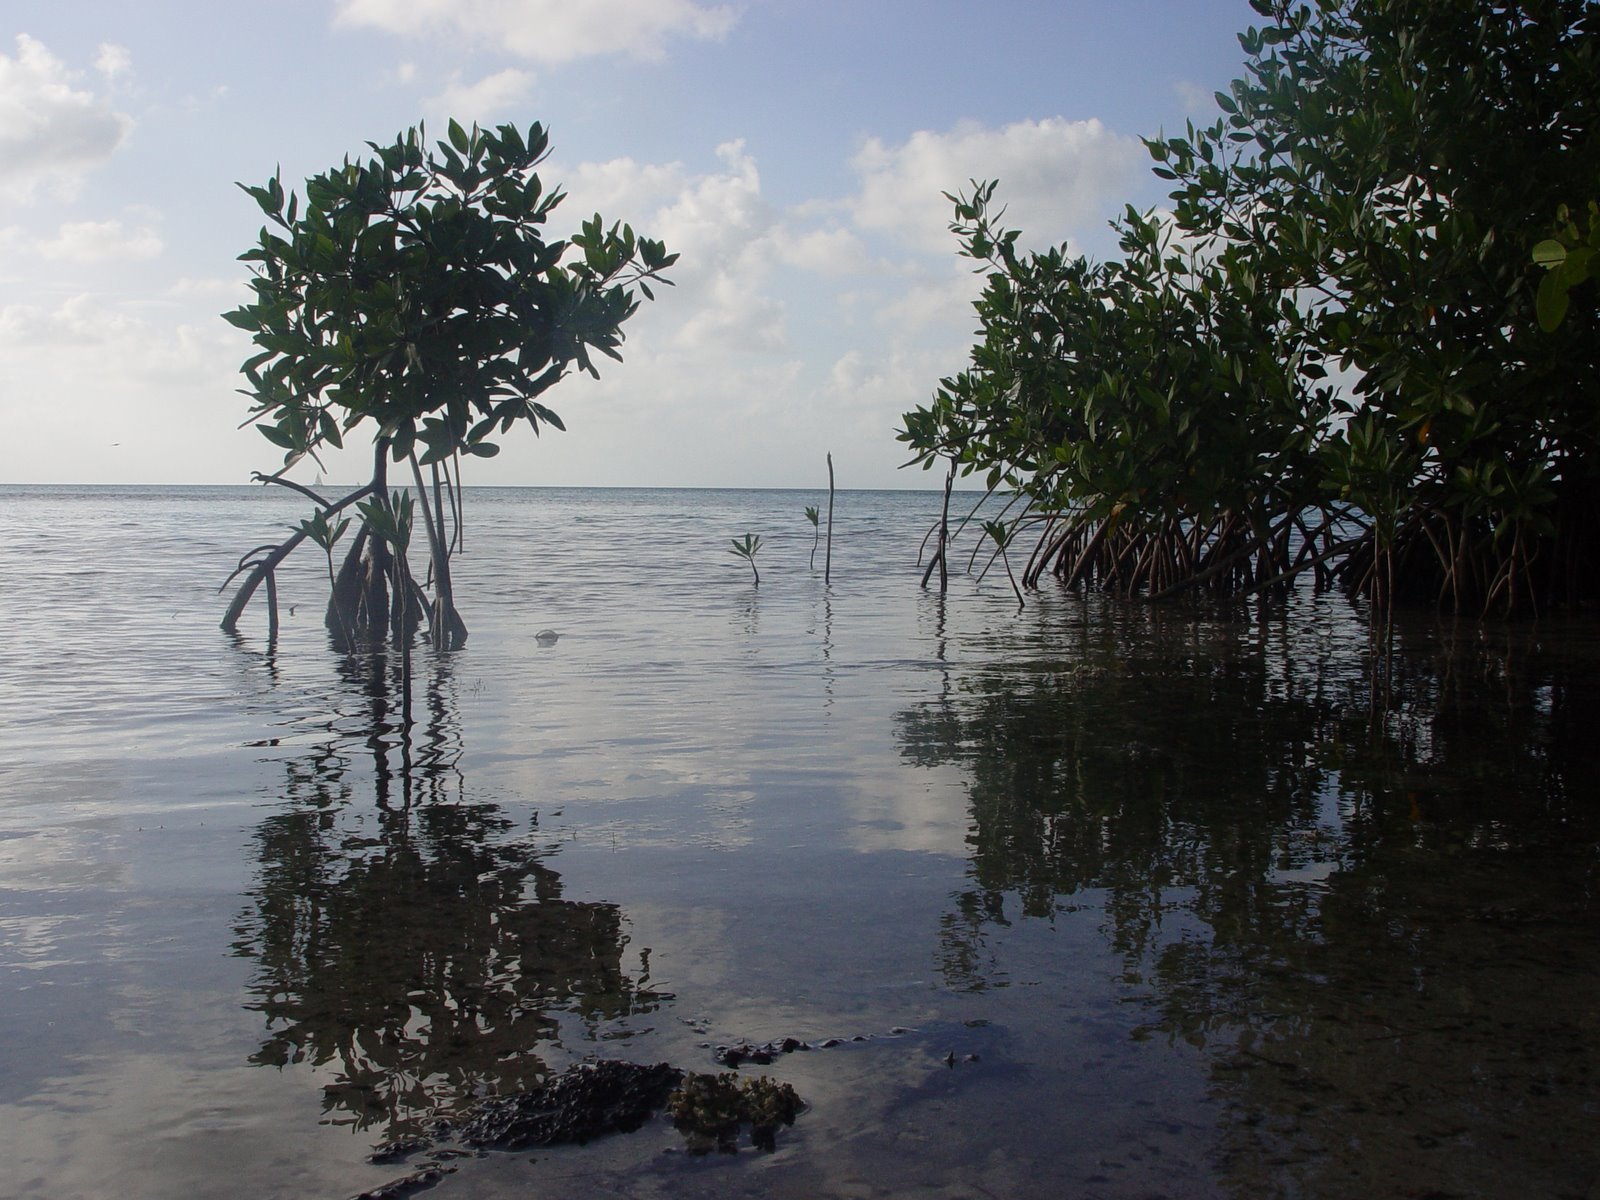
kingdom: Plantae
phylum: Tracheophyta
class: Magnoliopsida
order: Malpighiales
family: Rhizophoraceae
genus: Rhizophora
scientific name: Rhizophora mangle
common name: Red mangrove
